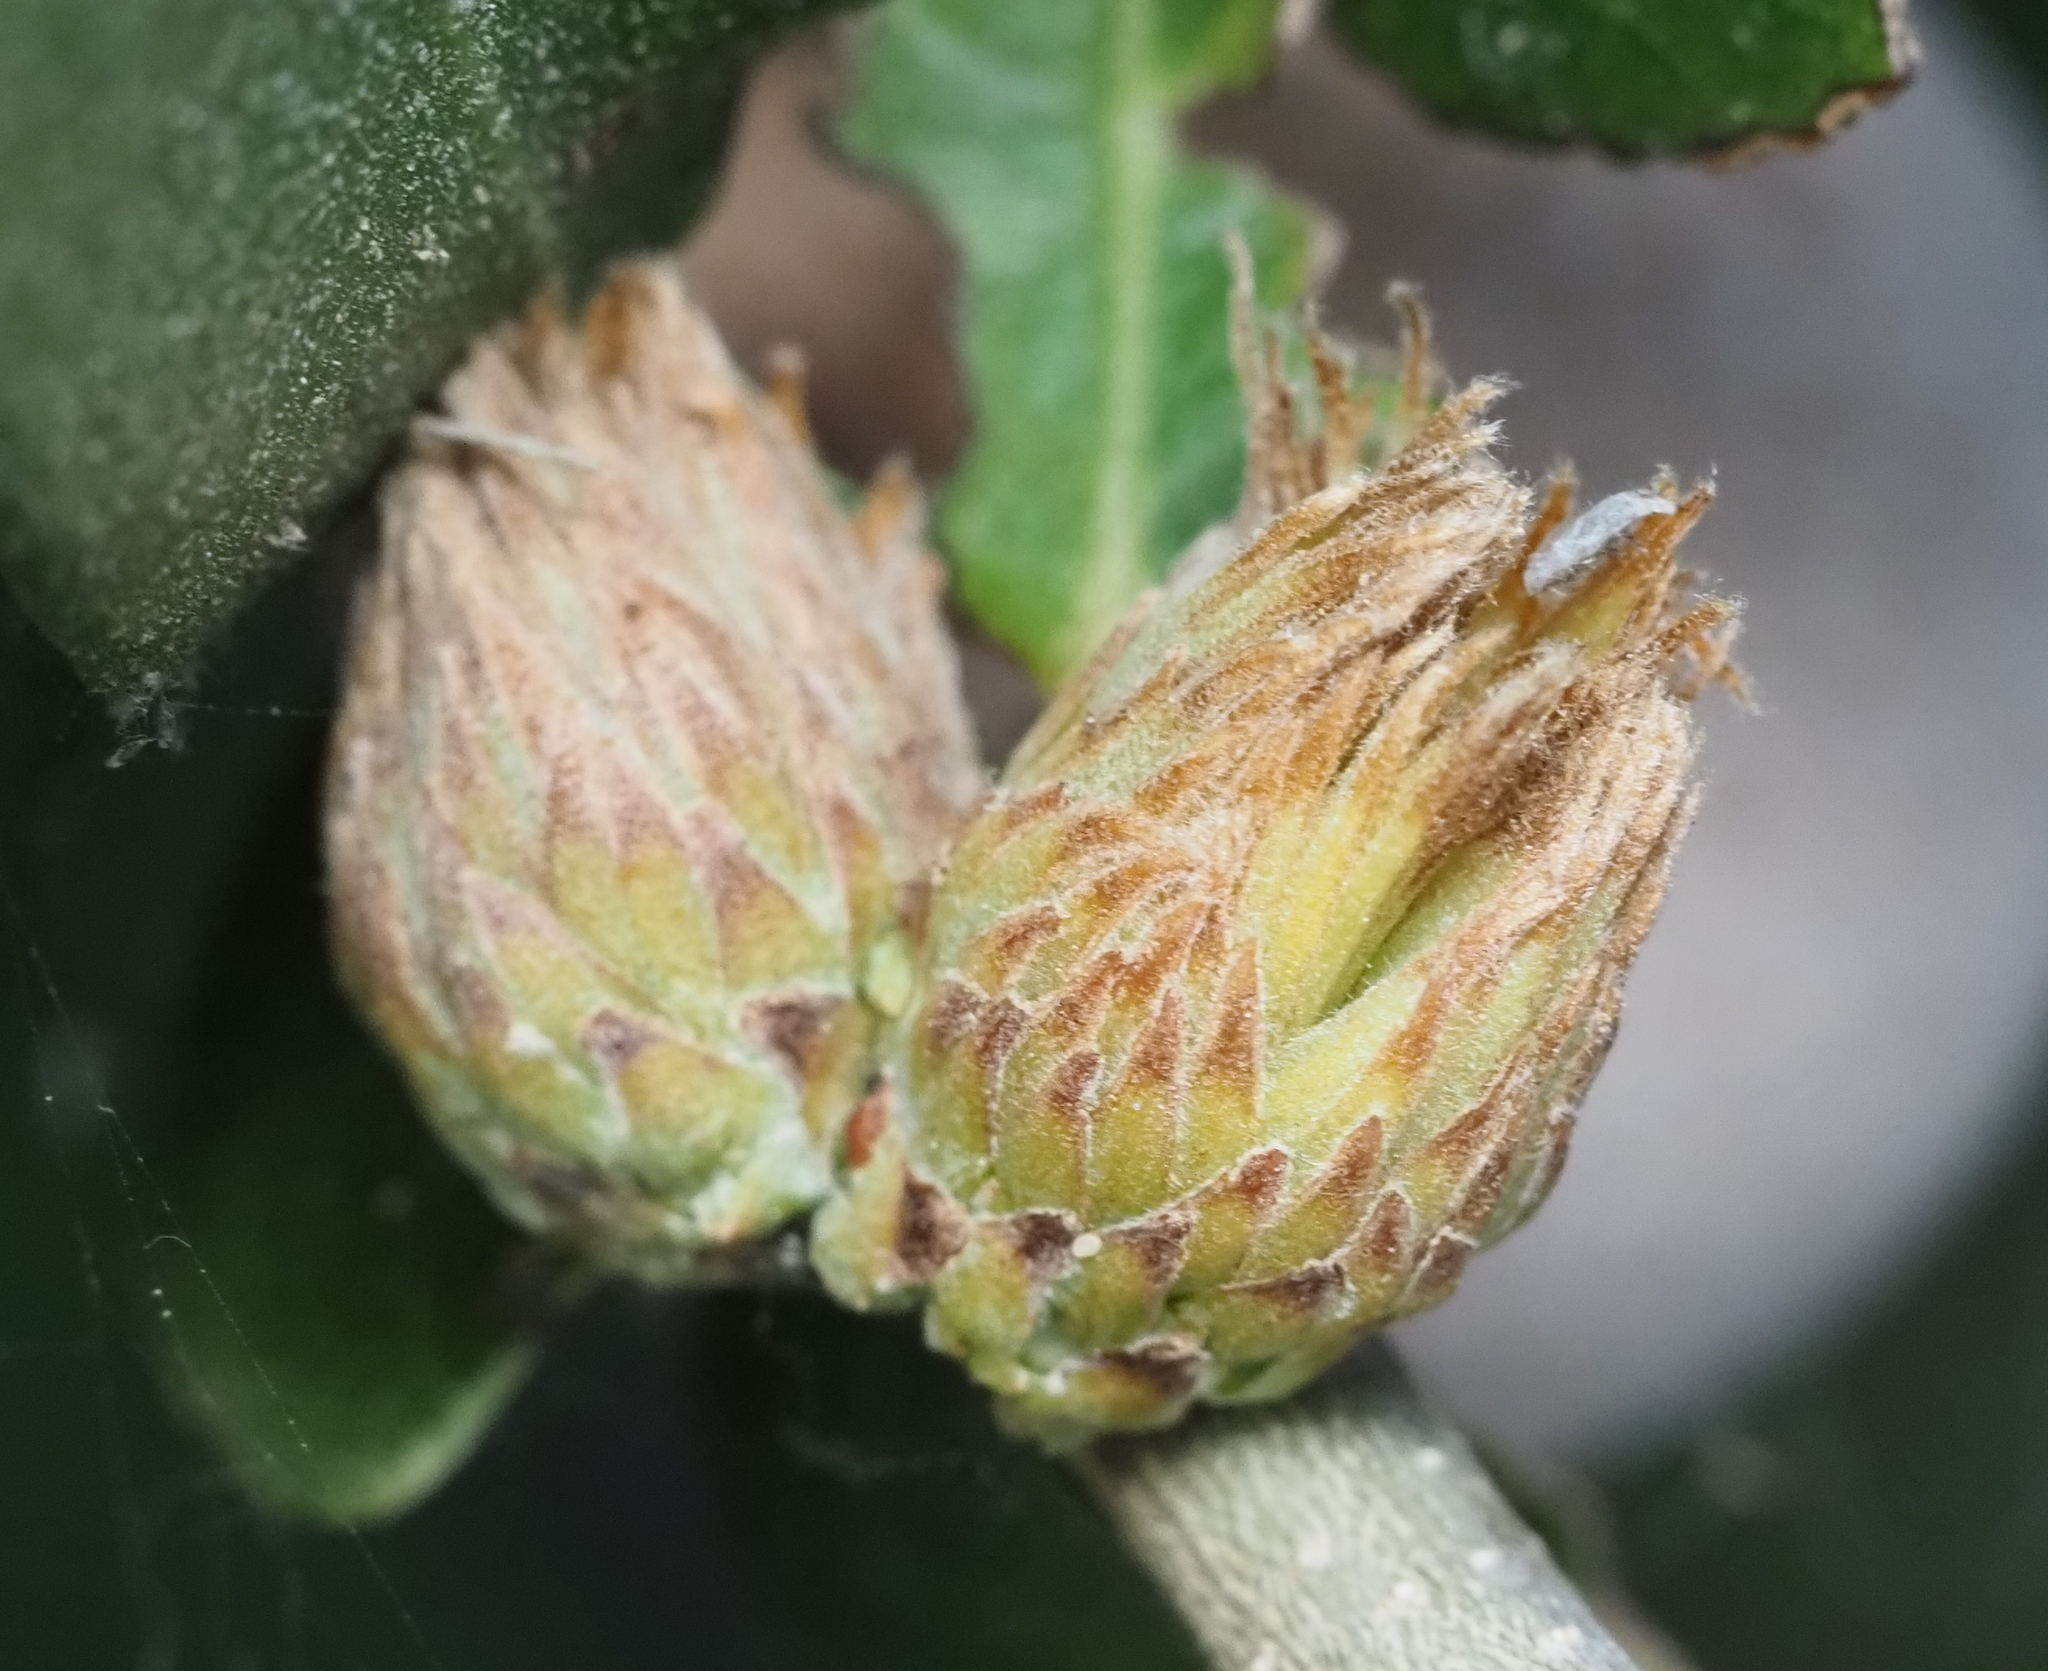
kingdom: Animalia
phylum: Arthropoda
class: Insecta
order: Hymenoptera
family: Cynipidae
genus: Andricus
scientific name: Andricus quercusfoliatus
